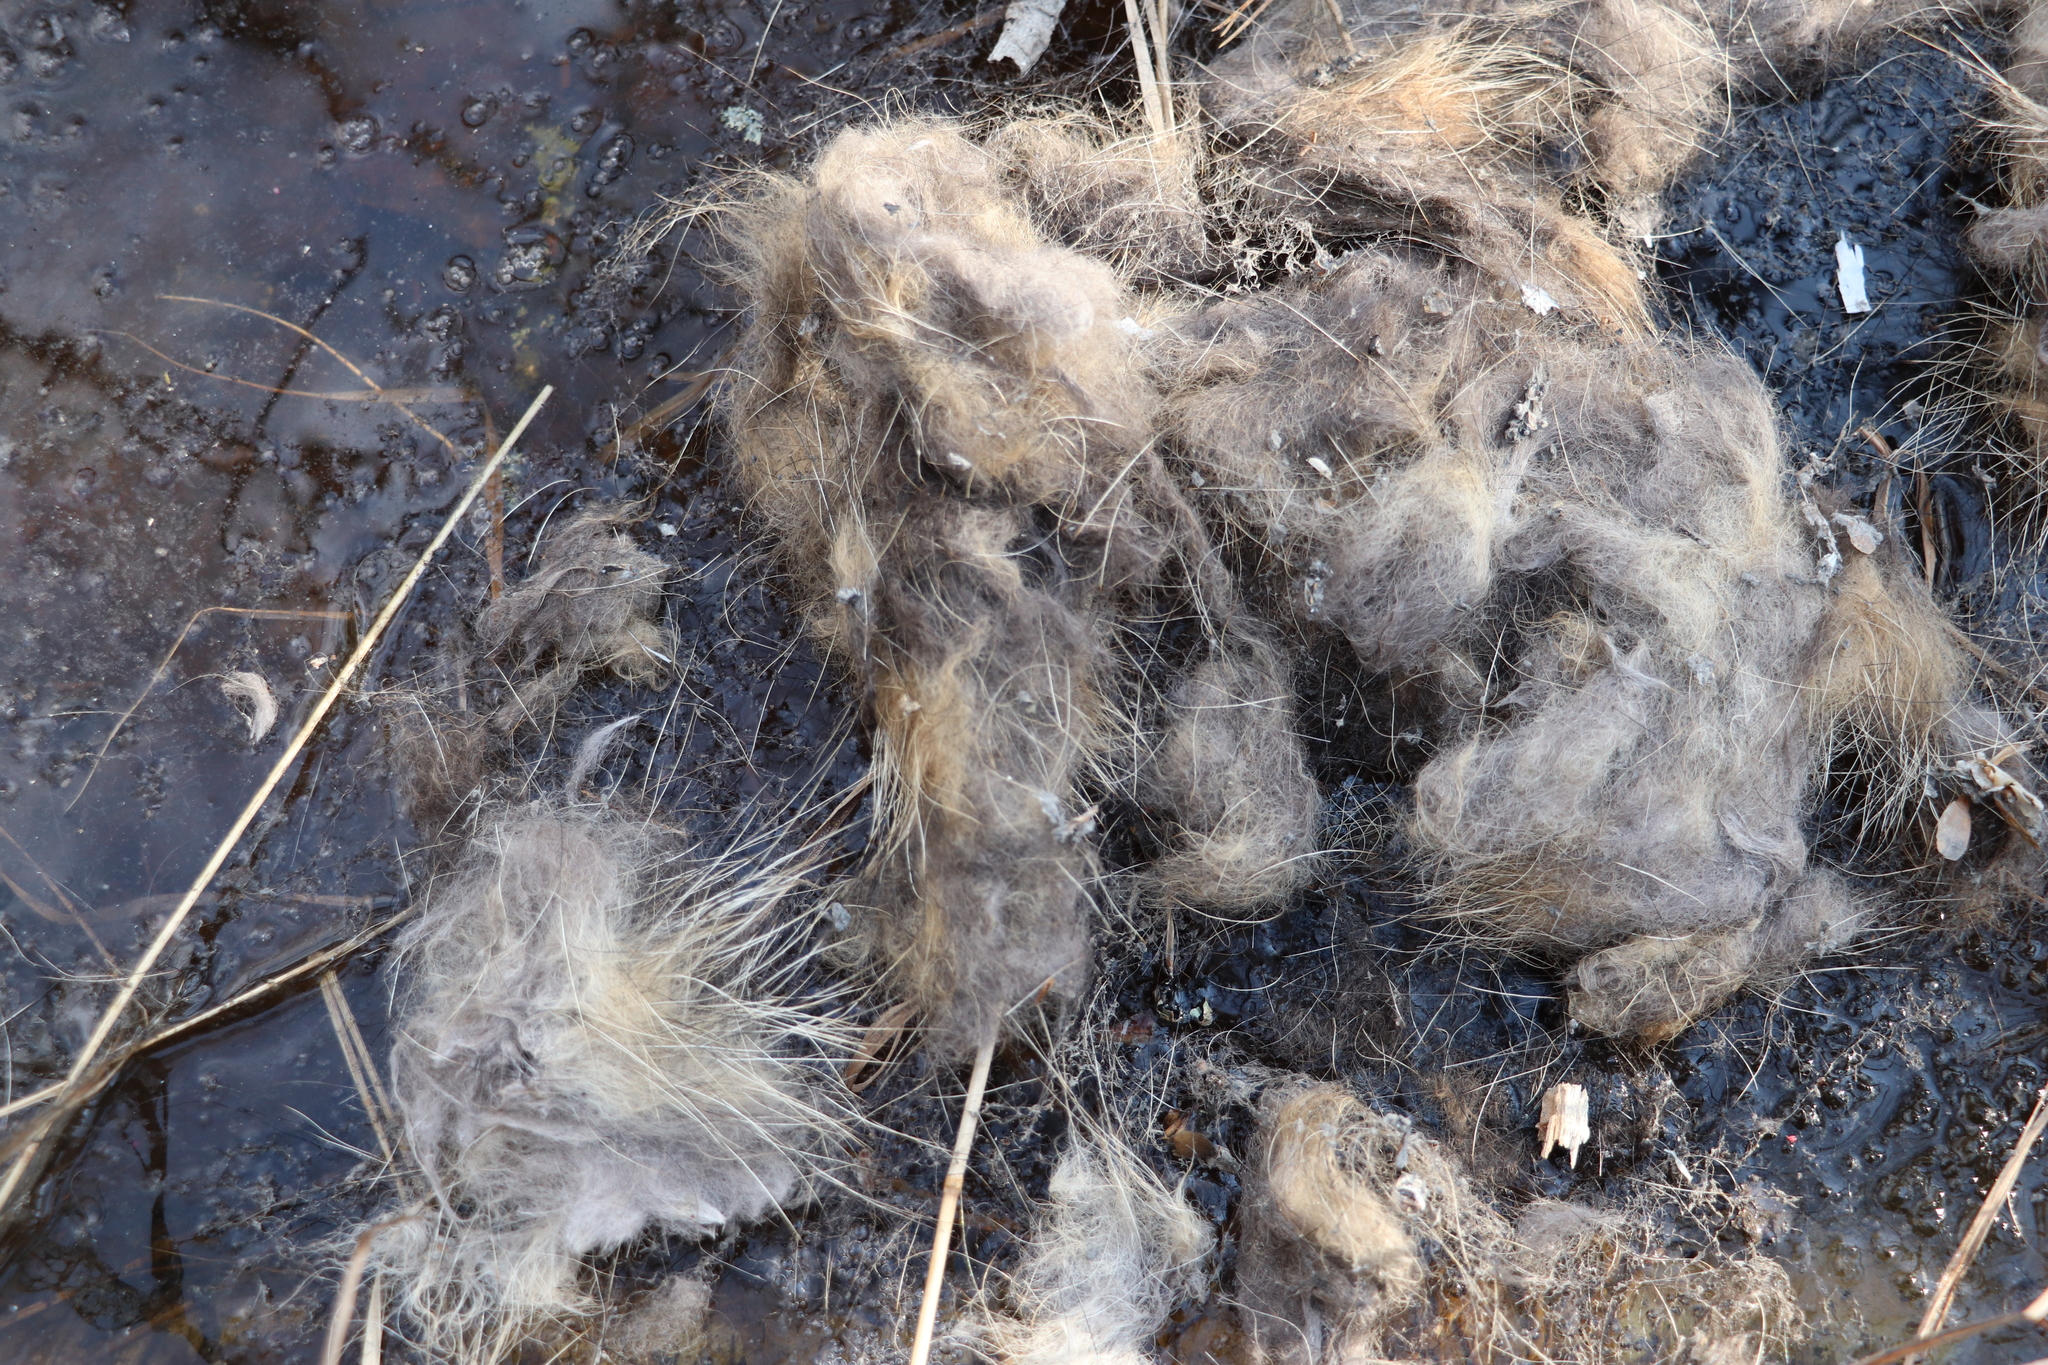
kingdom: Animalia
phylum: Chordata
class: Mammalia
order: Carnivora
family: Canidae
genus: Nyctereutes
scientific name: Nyctereutes procyonoides
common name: Raccoon dog
